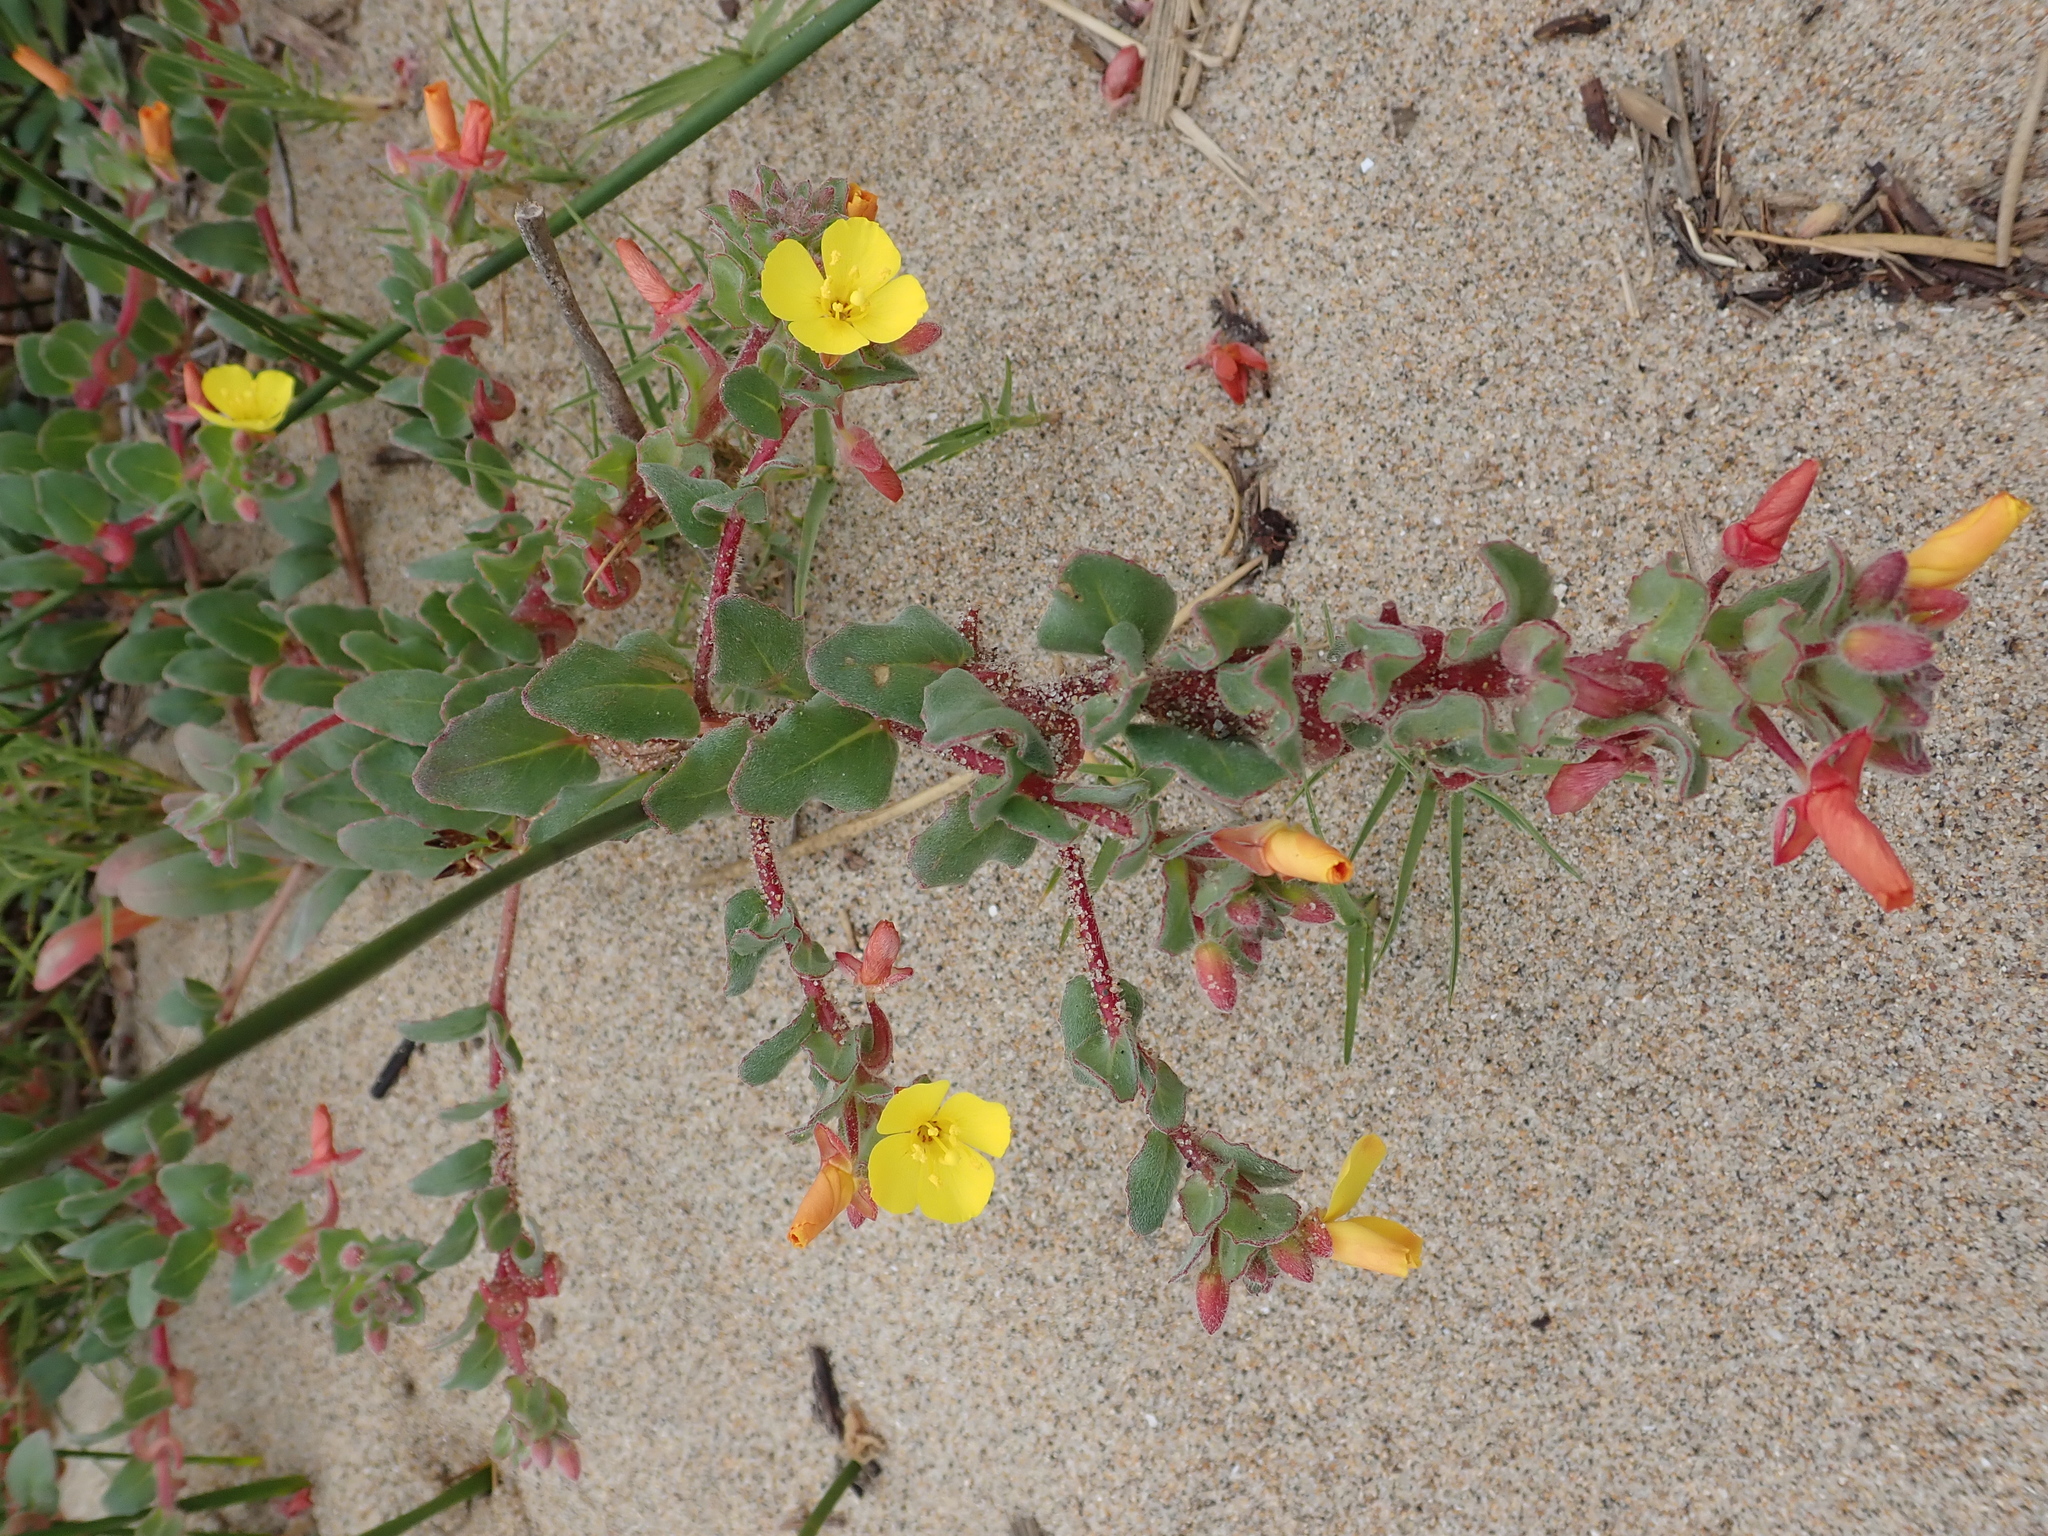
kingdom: Plantae
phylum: Tracheophyta
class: Magnoliopsida
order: Myrtales
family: Onagraceae
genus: Camissoniopsis
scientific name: Camissoniopsis cheiranthifolia
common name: Beach suncup
